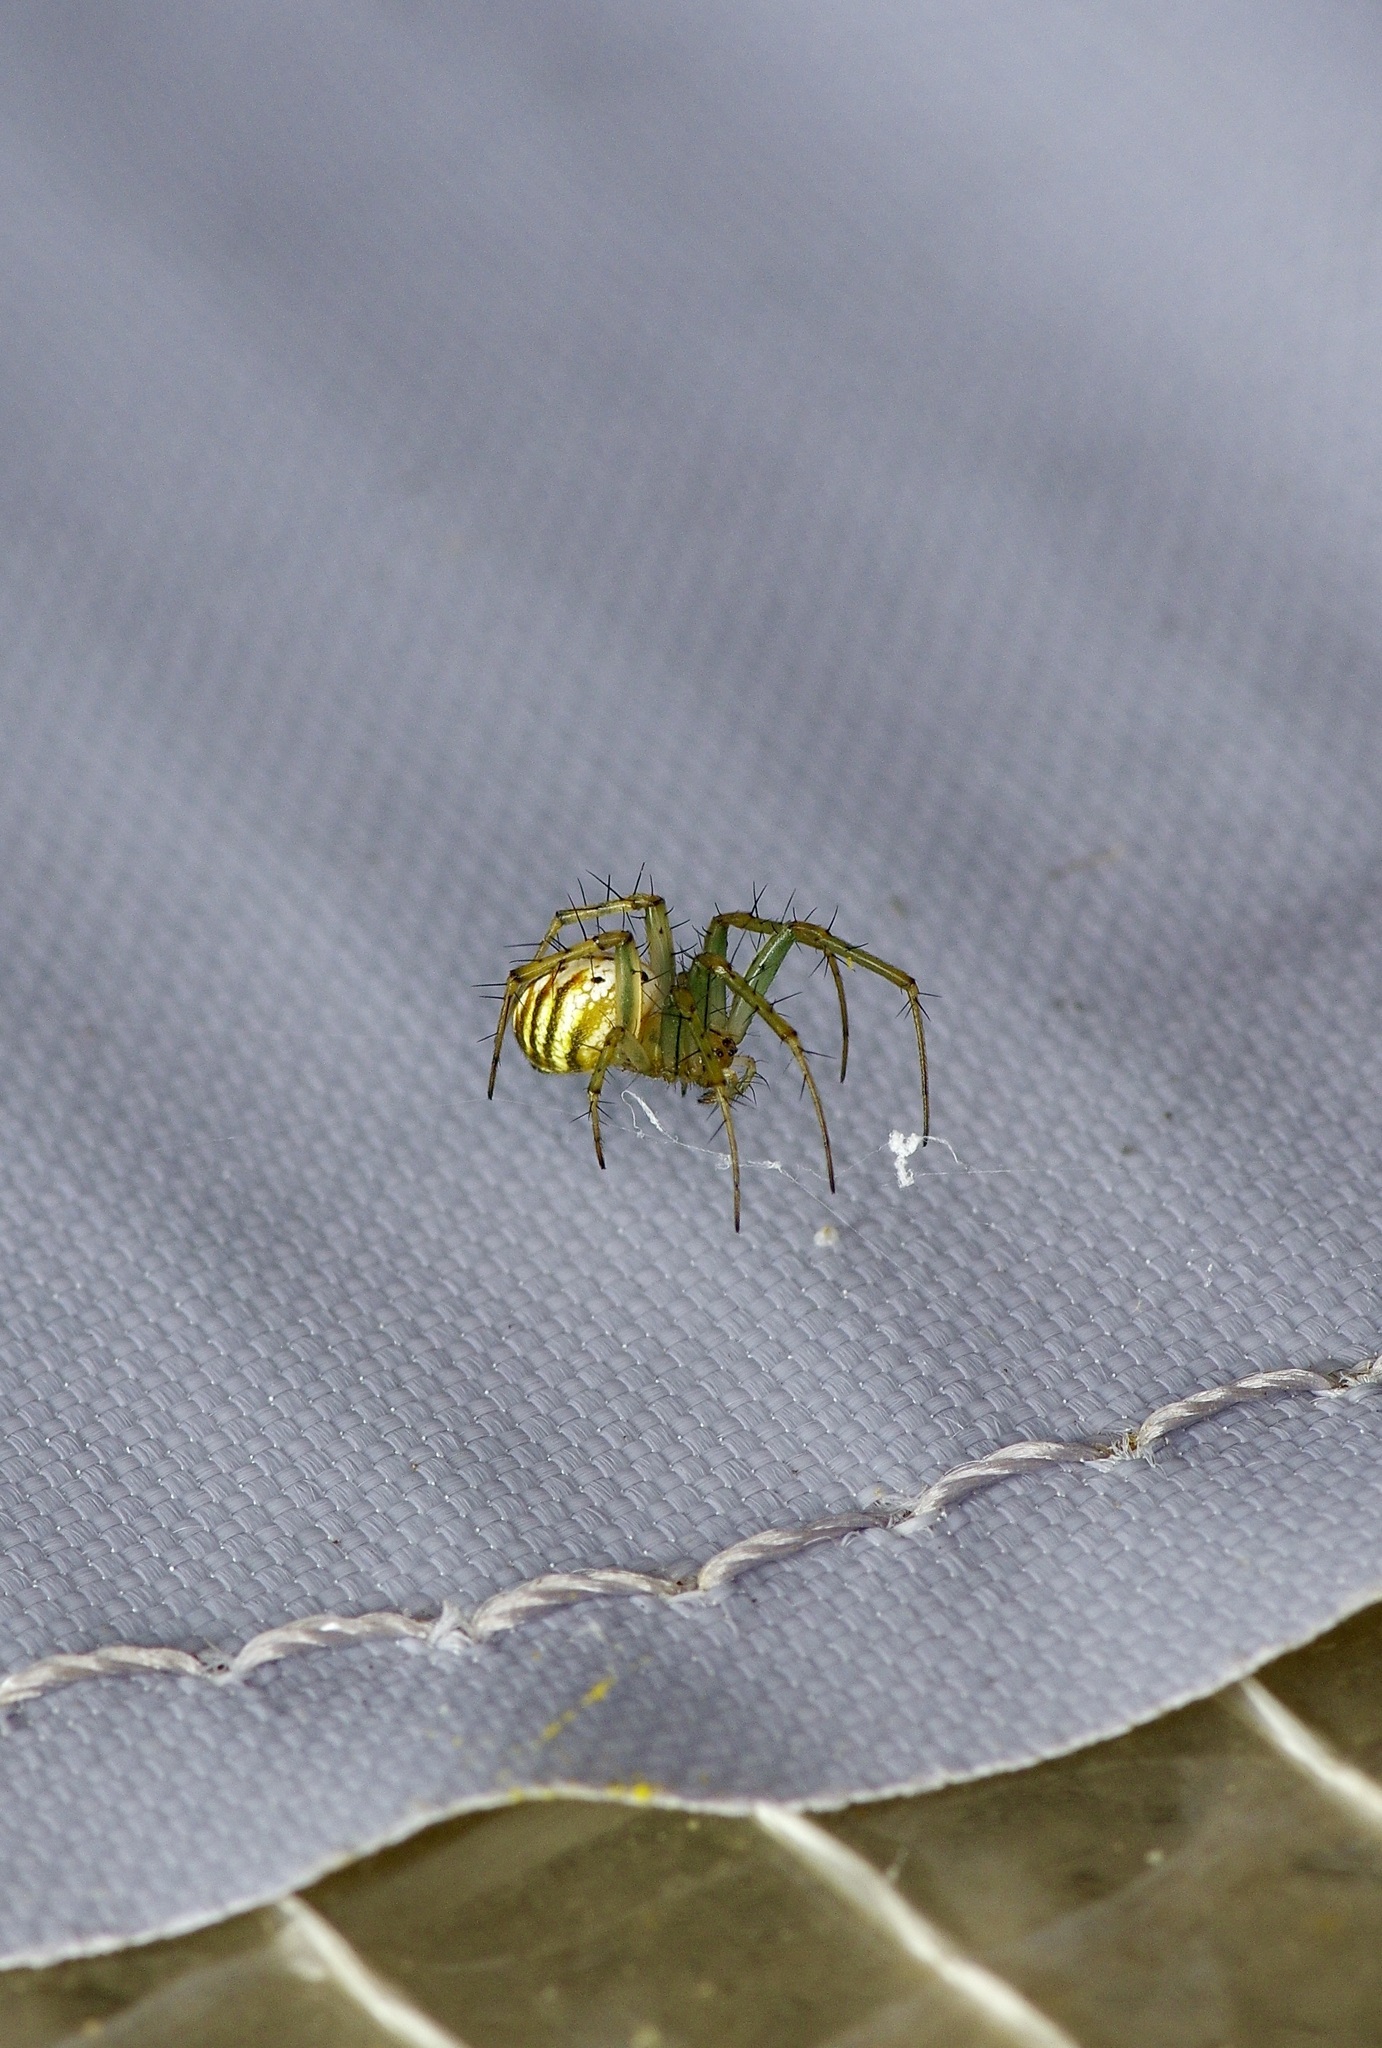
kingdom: Animalia
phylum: Arthropoda
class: Arachnida
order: Araneae
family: Araneidae
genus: Mangora
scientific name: Mangora gibberosa
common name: Lined orbweaver
